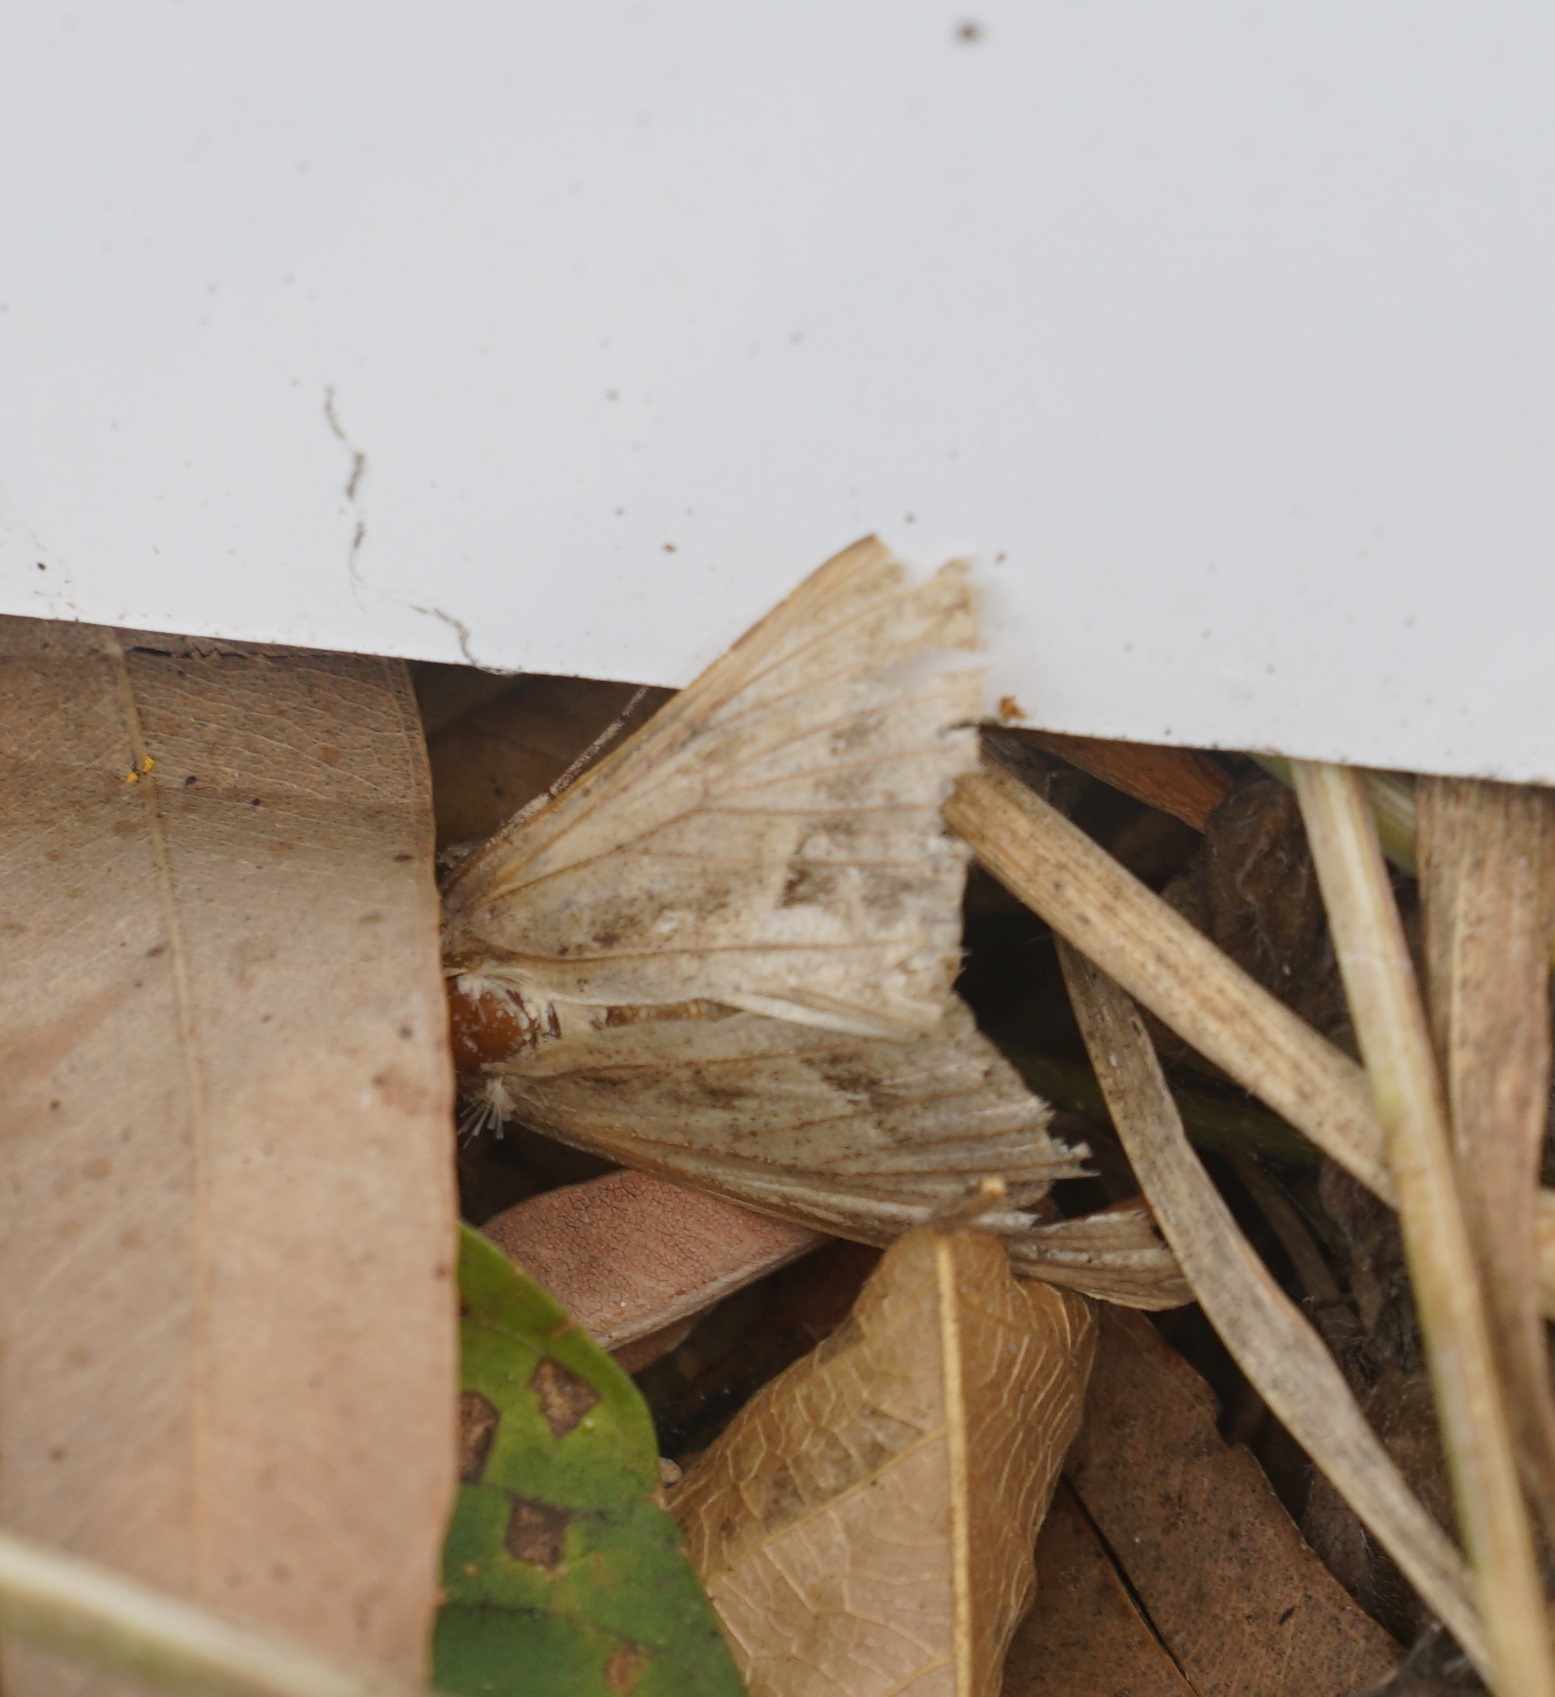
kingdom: Animalia
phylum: Arthropoda
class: Insecta
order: Lepidoptera
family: Erebidae
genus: Mocis
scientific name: Mocis frugalis
